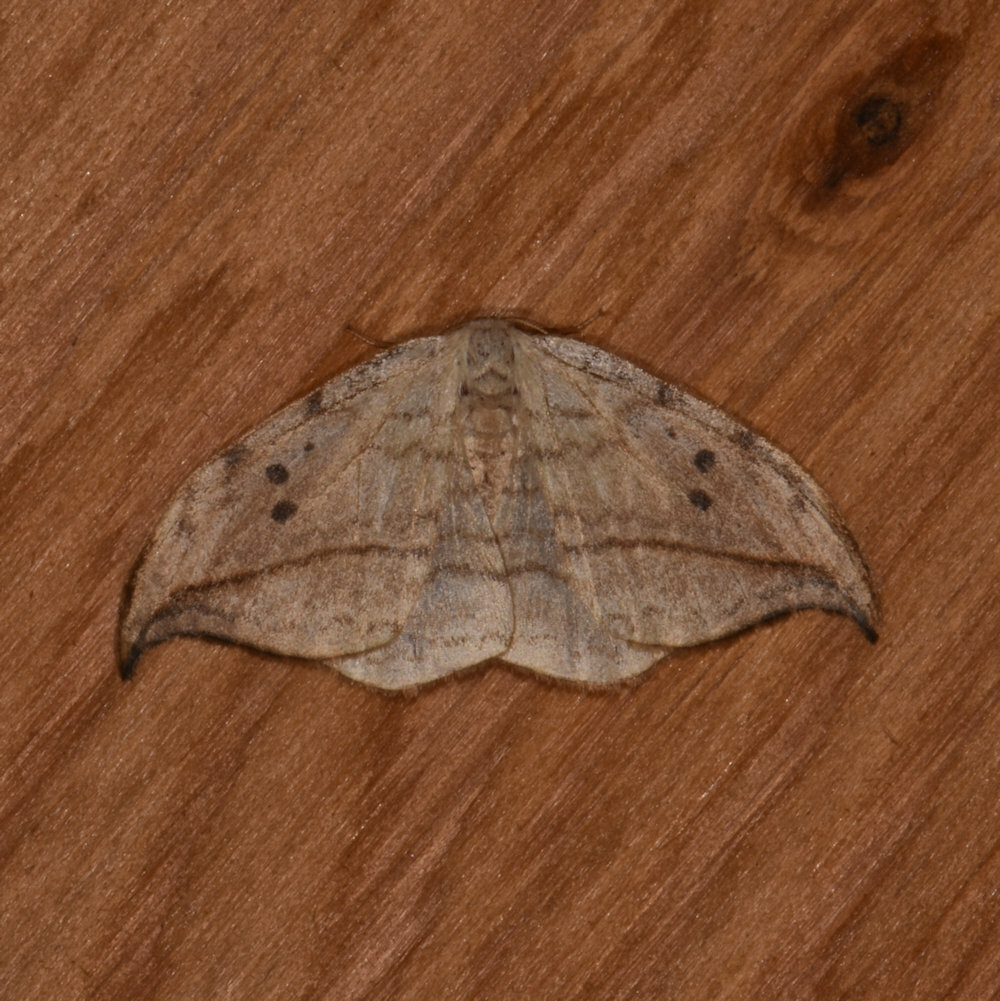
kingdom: Animalia
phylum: Arthropoda
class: Insecta
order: Lepidoptera
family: Drepanidae
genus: Drepana
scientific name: Drepana arcuata
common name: Arched hooktip moth
